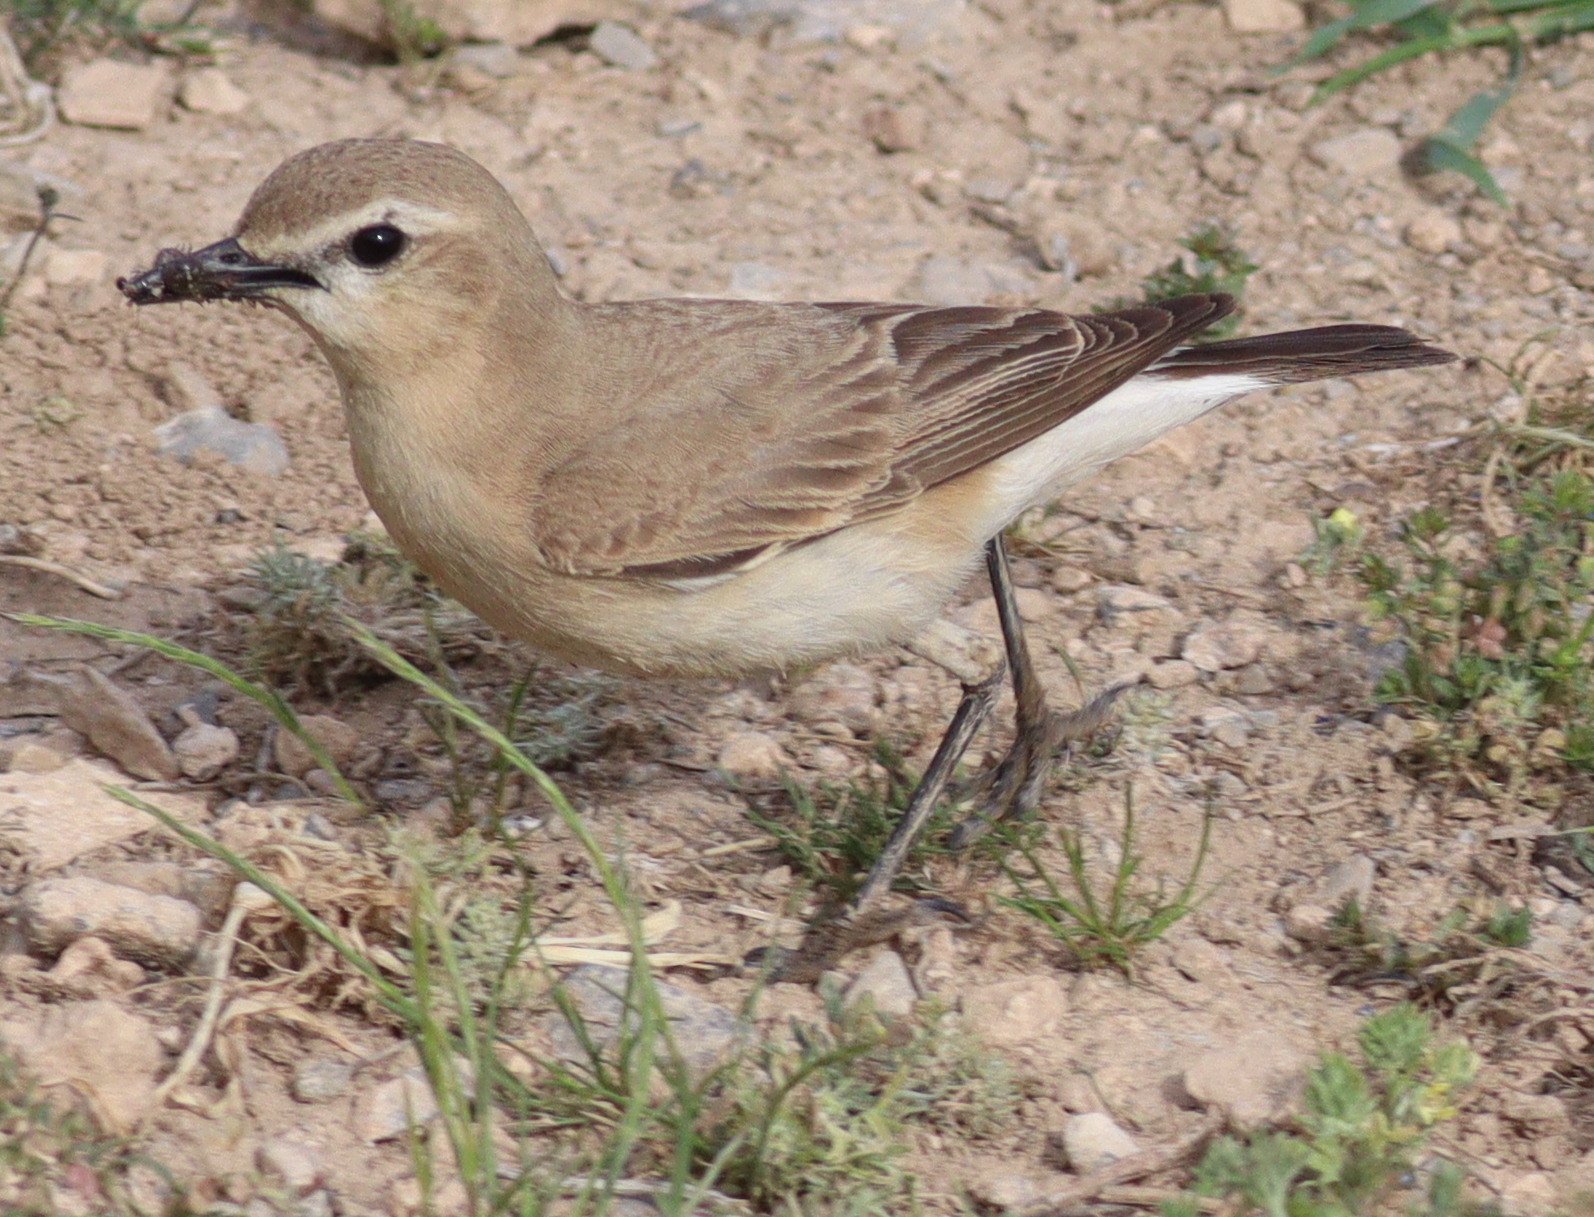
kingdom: Animalia
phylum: Chordata
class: Aves
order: Passeriformes
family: Muscicapidae
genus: Oenanthe
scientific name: Oenanthe isabellina
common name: Isabelline wheatear
